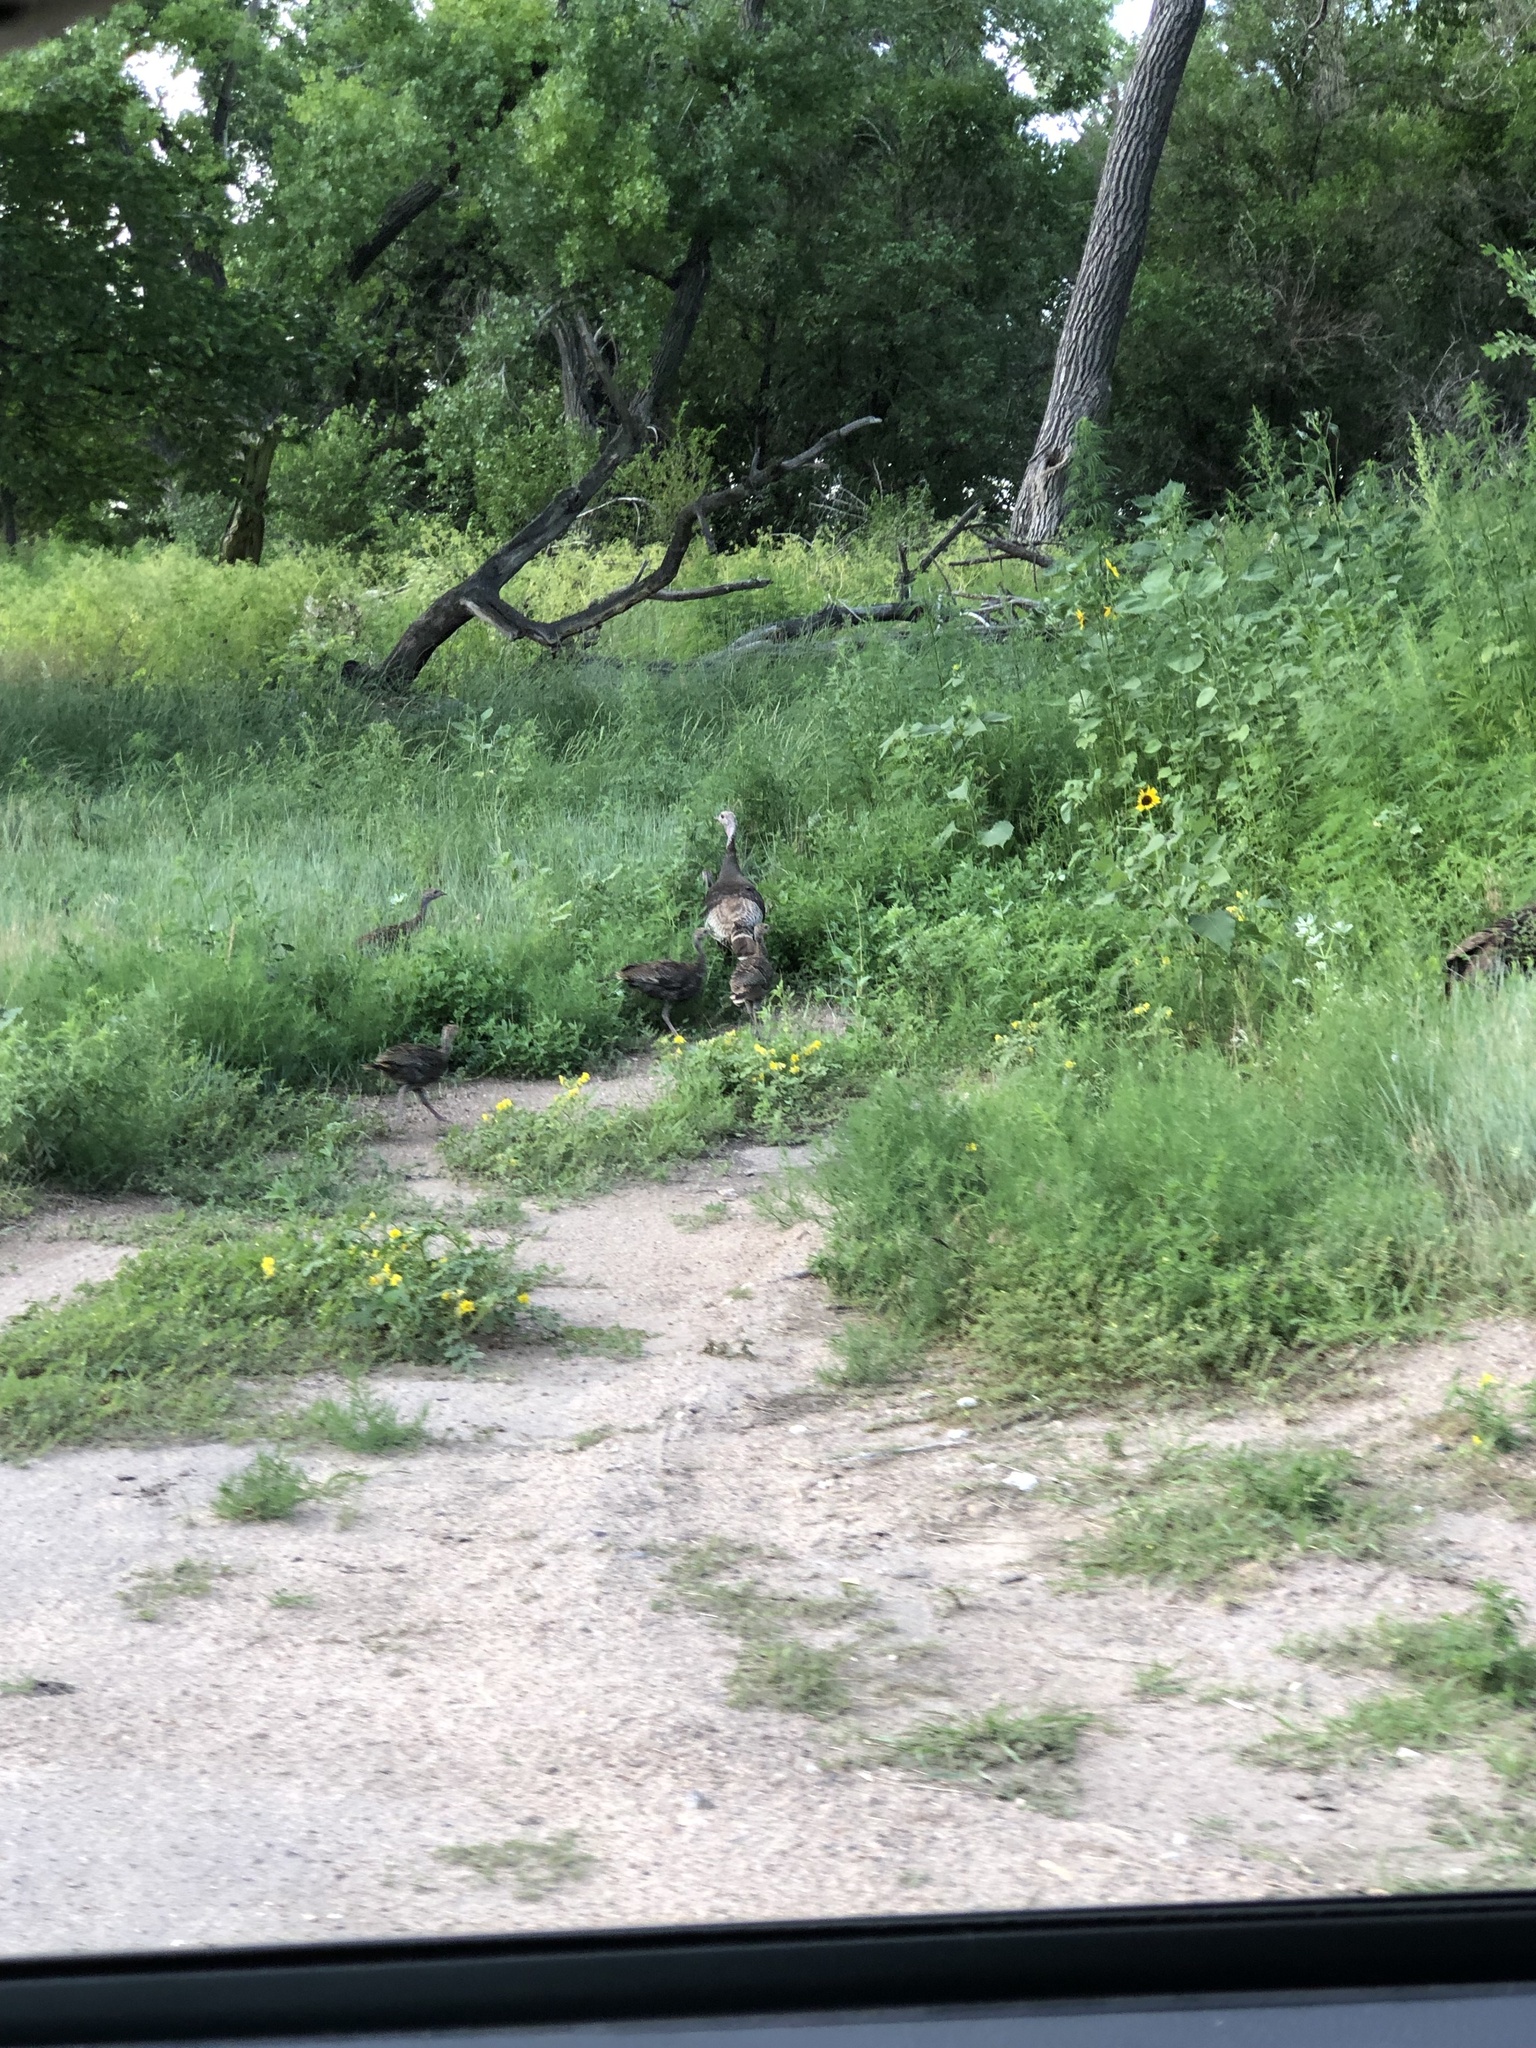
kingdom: Animalia
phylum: Chordata
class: Aves
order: Galliformes
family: Phasianidae
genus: Meleagris
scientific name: Meleagris gallopavo
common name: Wild turkey
